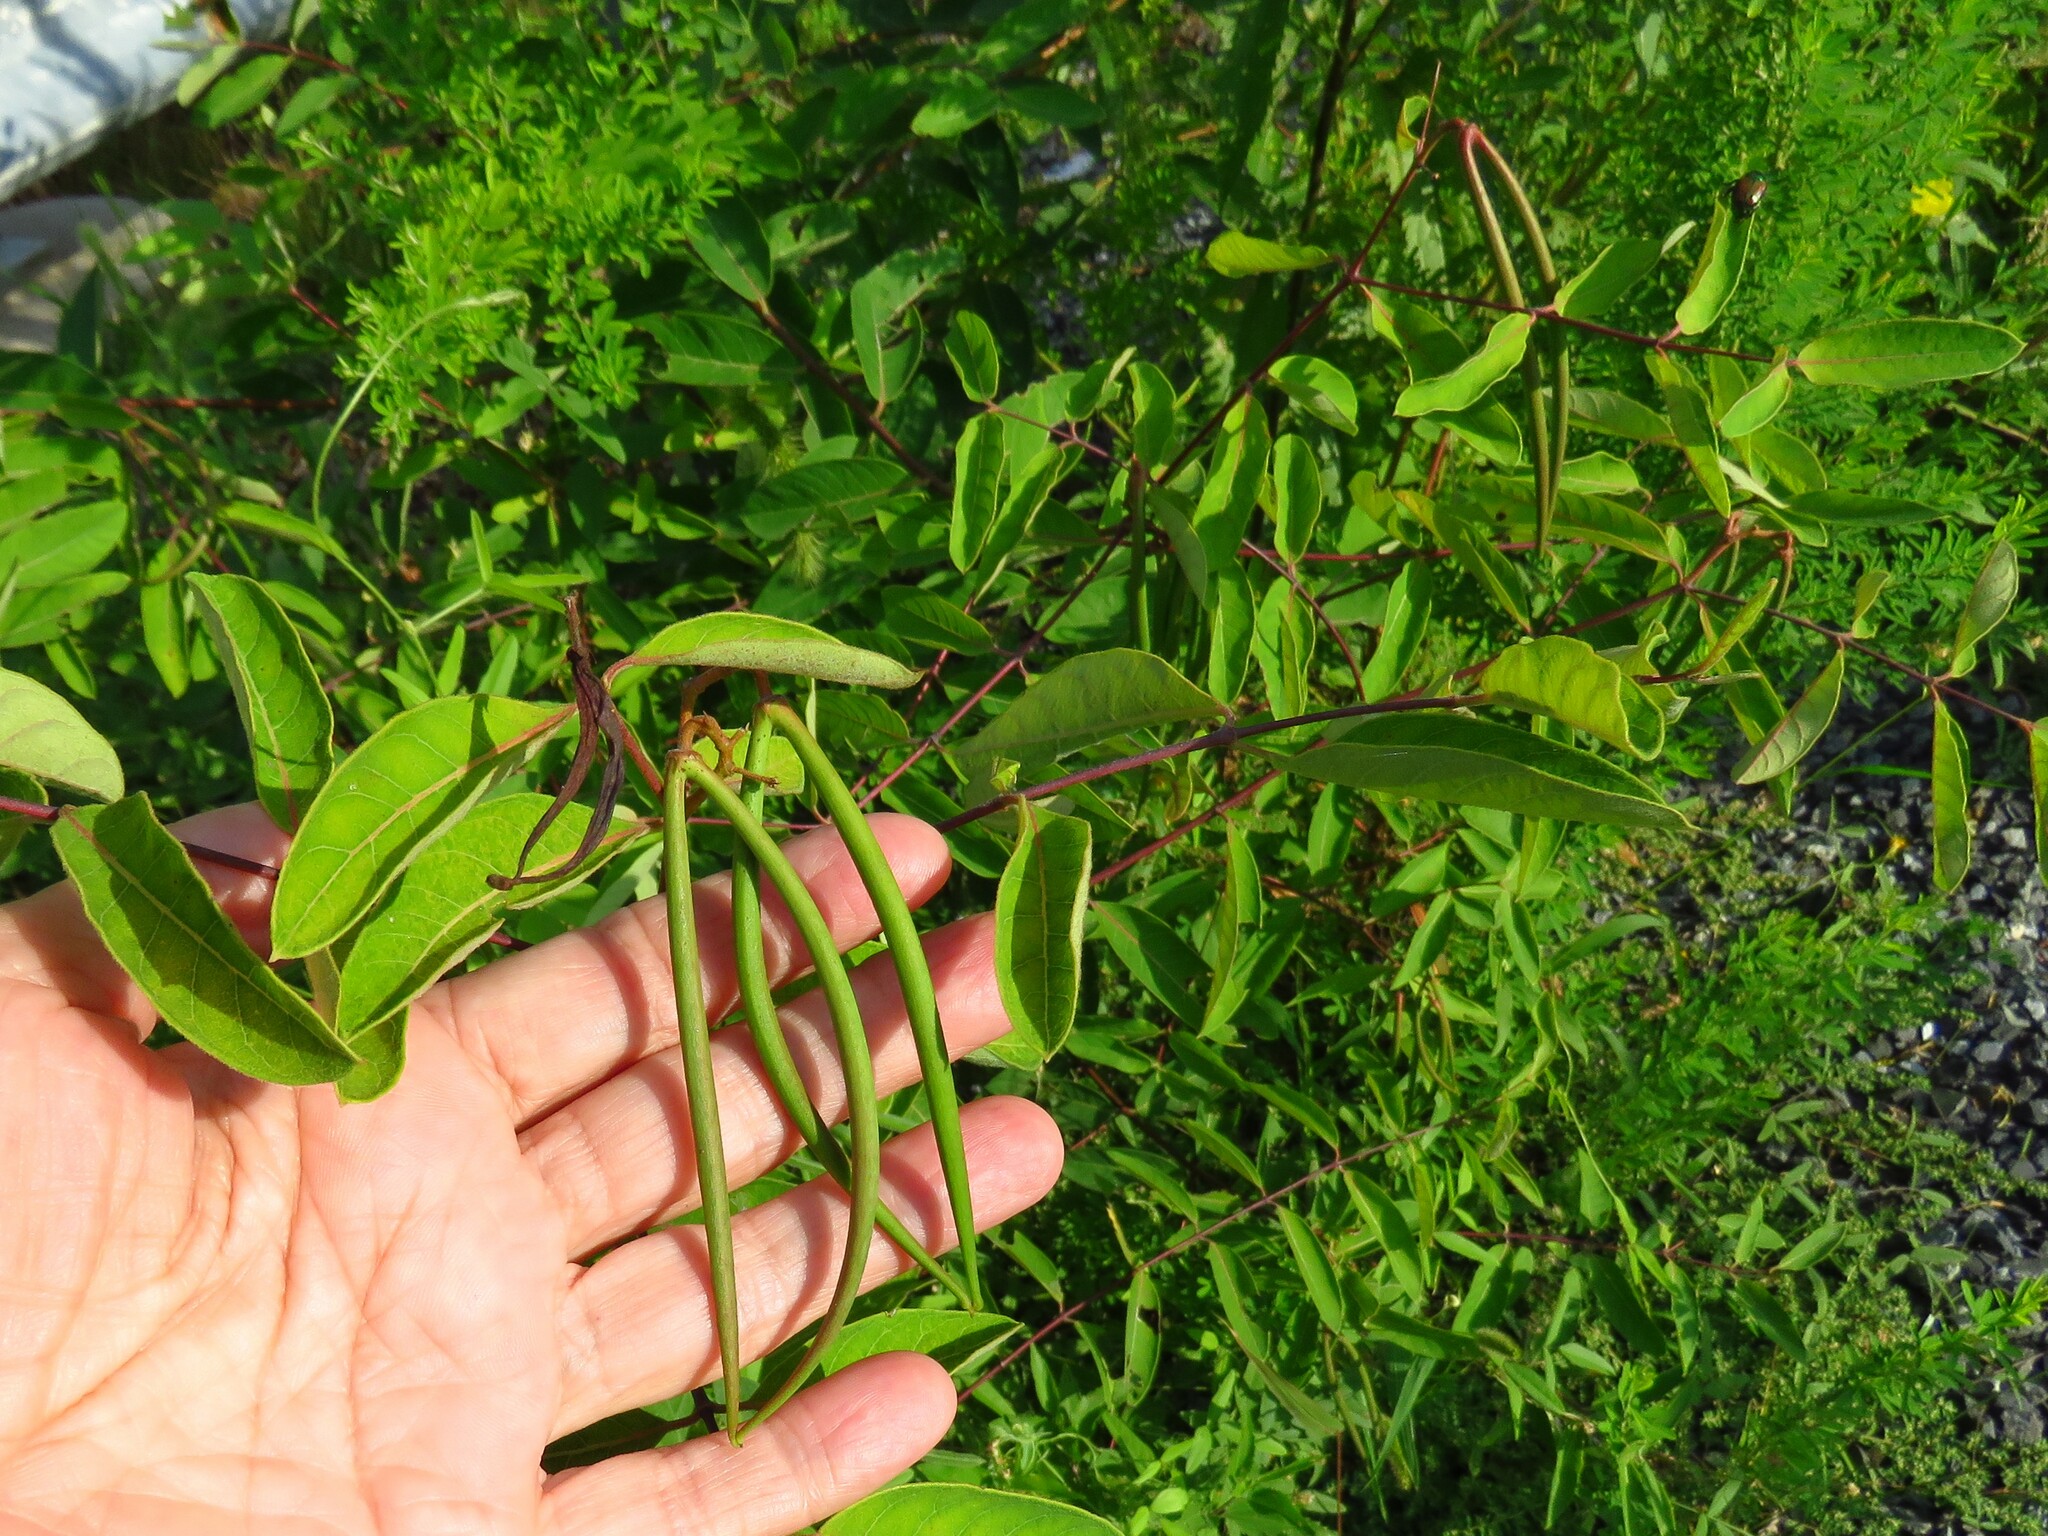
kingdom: Plantae
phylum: Tracheophyta
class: Magnoliopsida
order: Gentianales
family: Apocynaceae
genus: Apocynum
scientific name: Apocynum cannabinum
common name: Hemp dogbane
